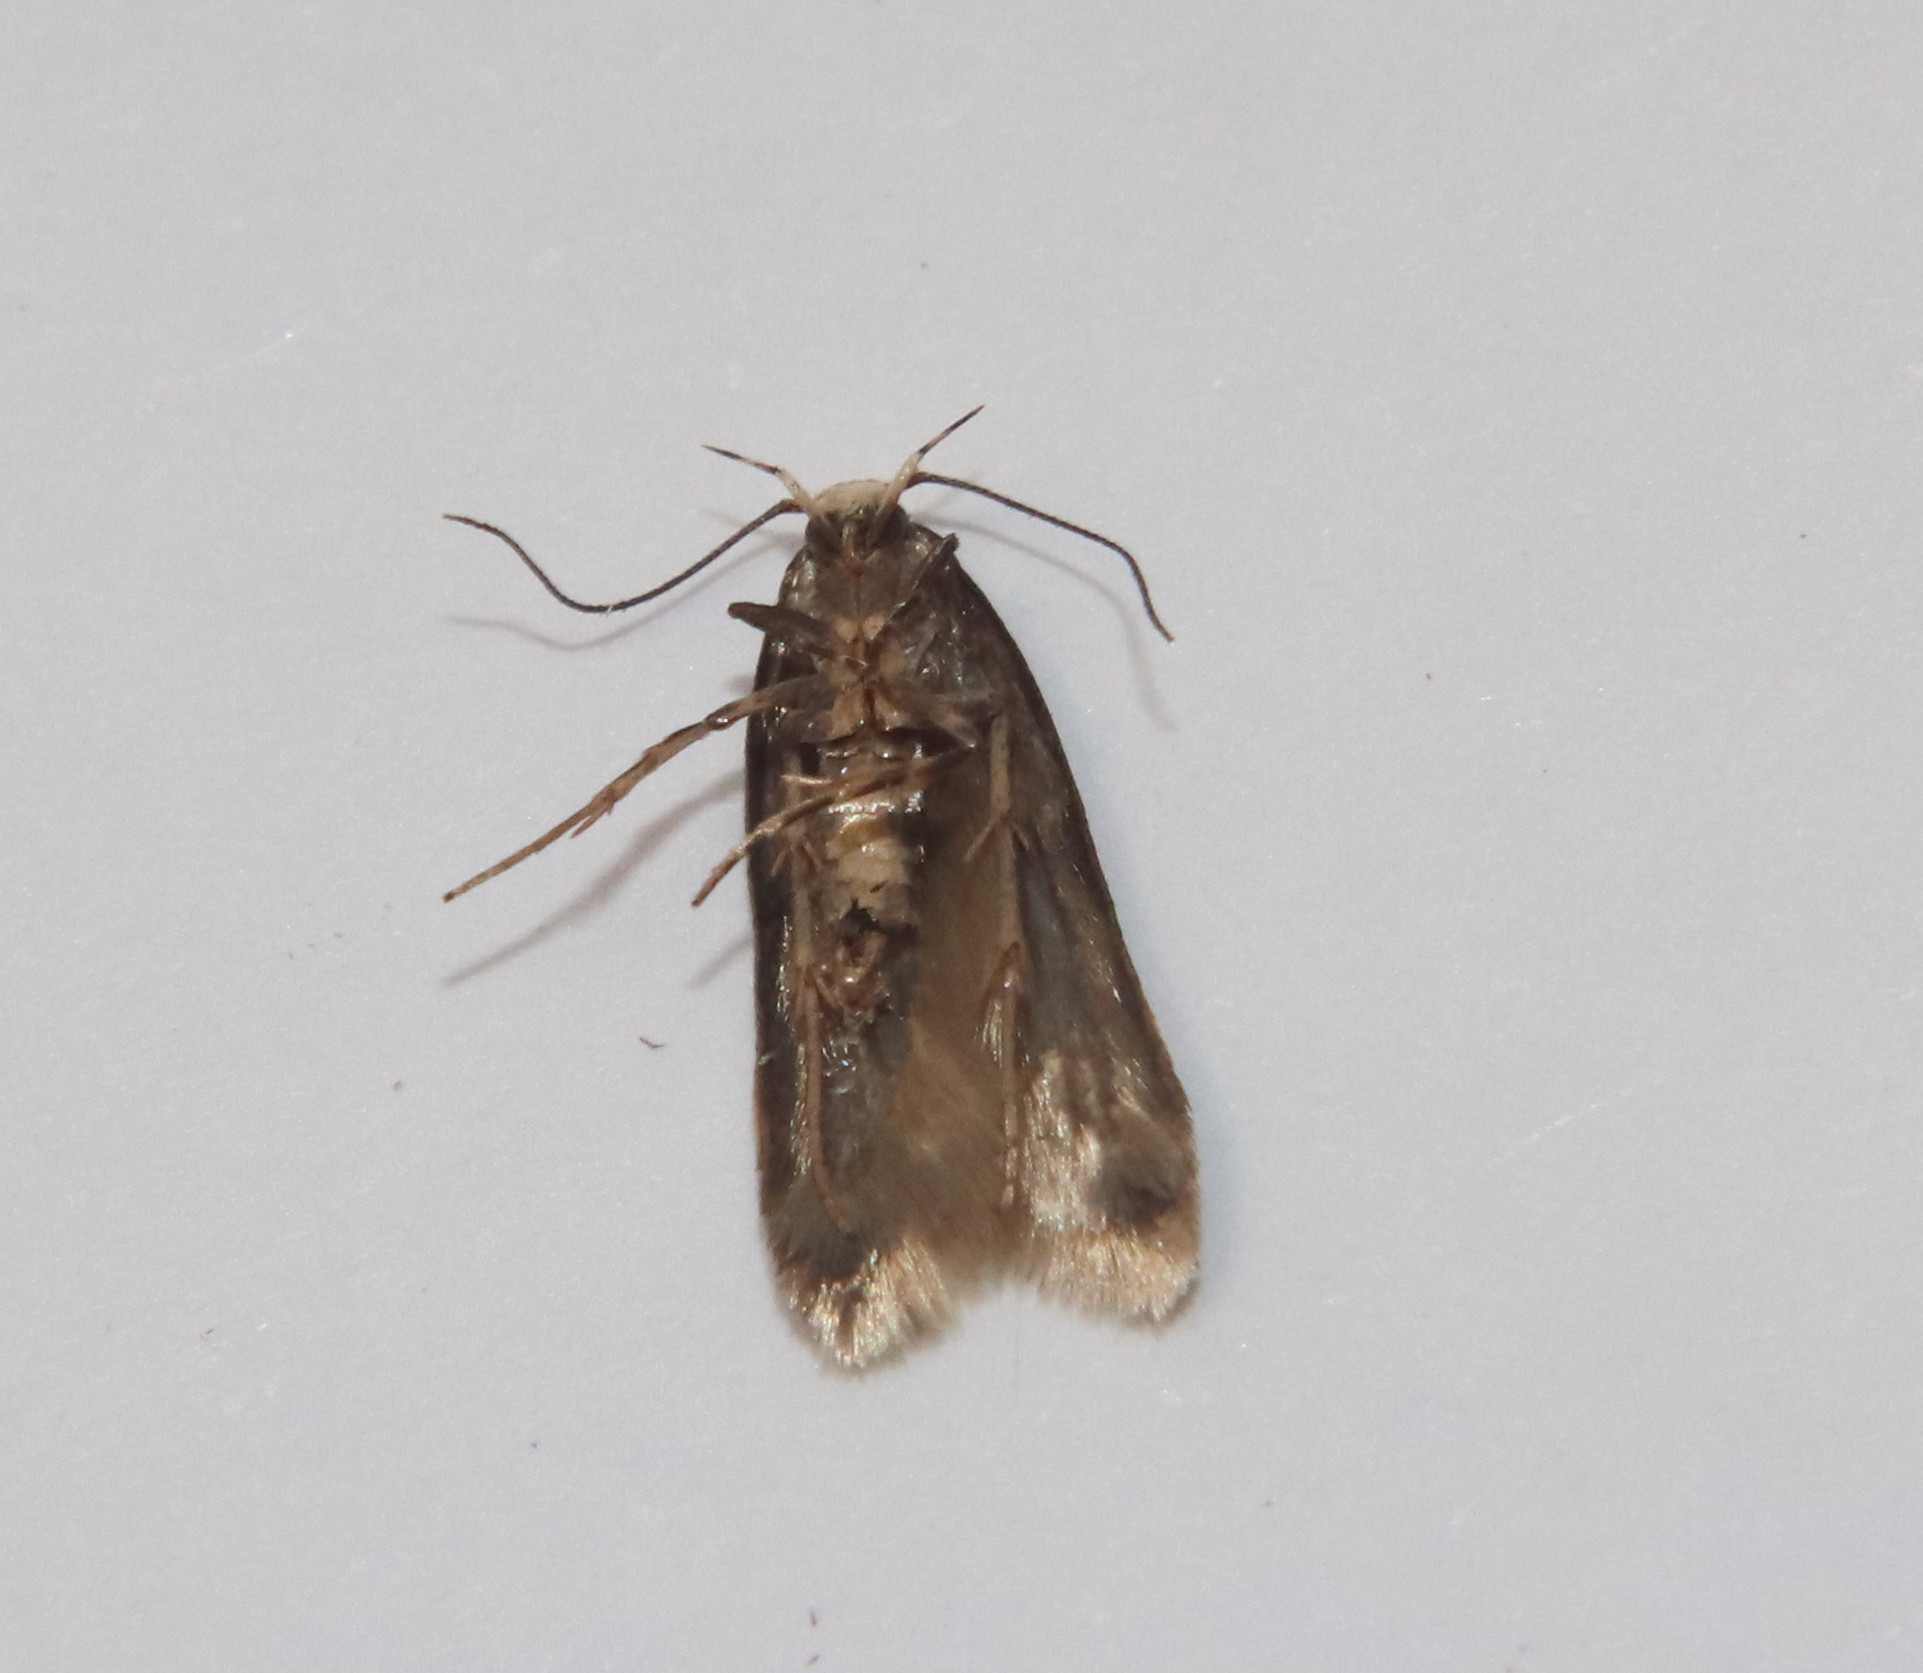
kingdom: Animalia
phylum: Arthropoda
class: Insecta
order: Lepidoptera
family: Oecophoridae
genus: Endrosis
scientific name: Endrosis sarcitrella
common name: White-shouldered house moth
